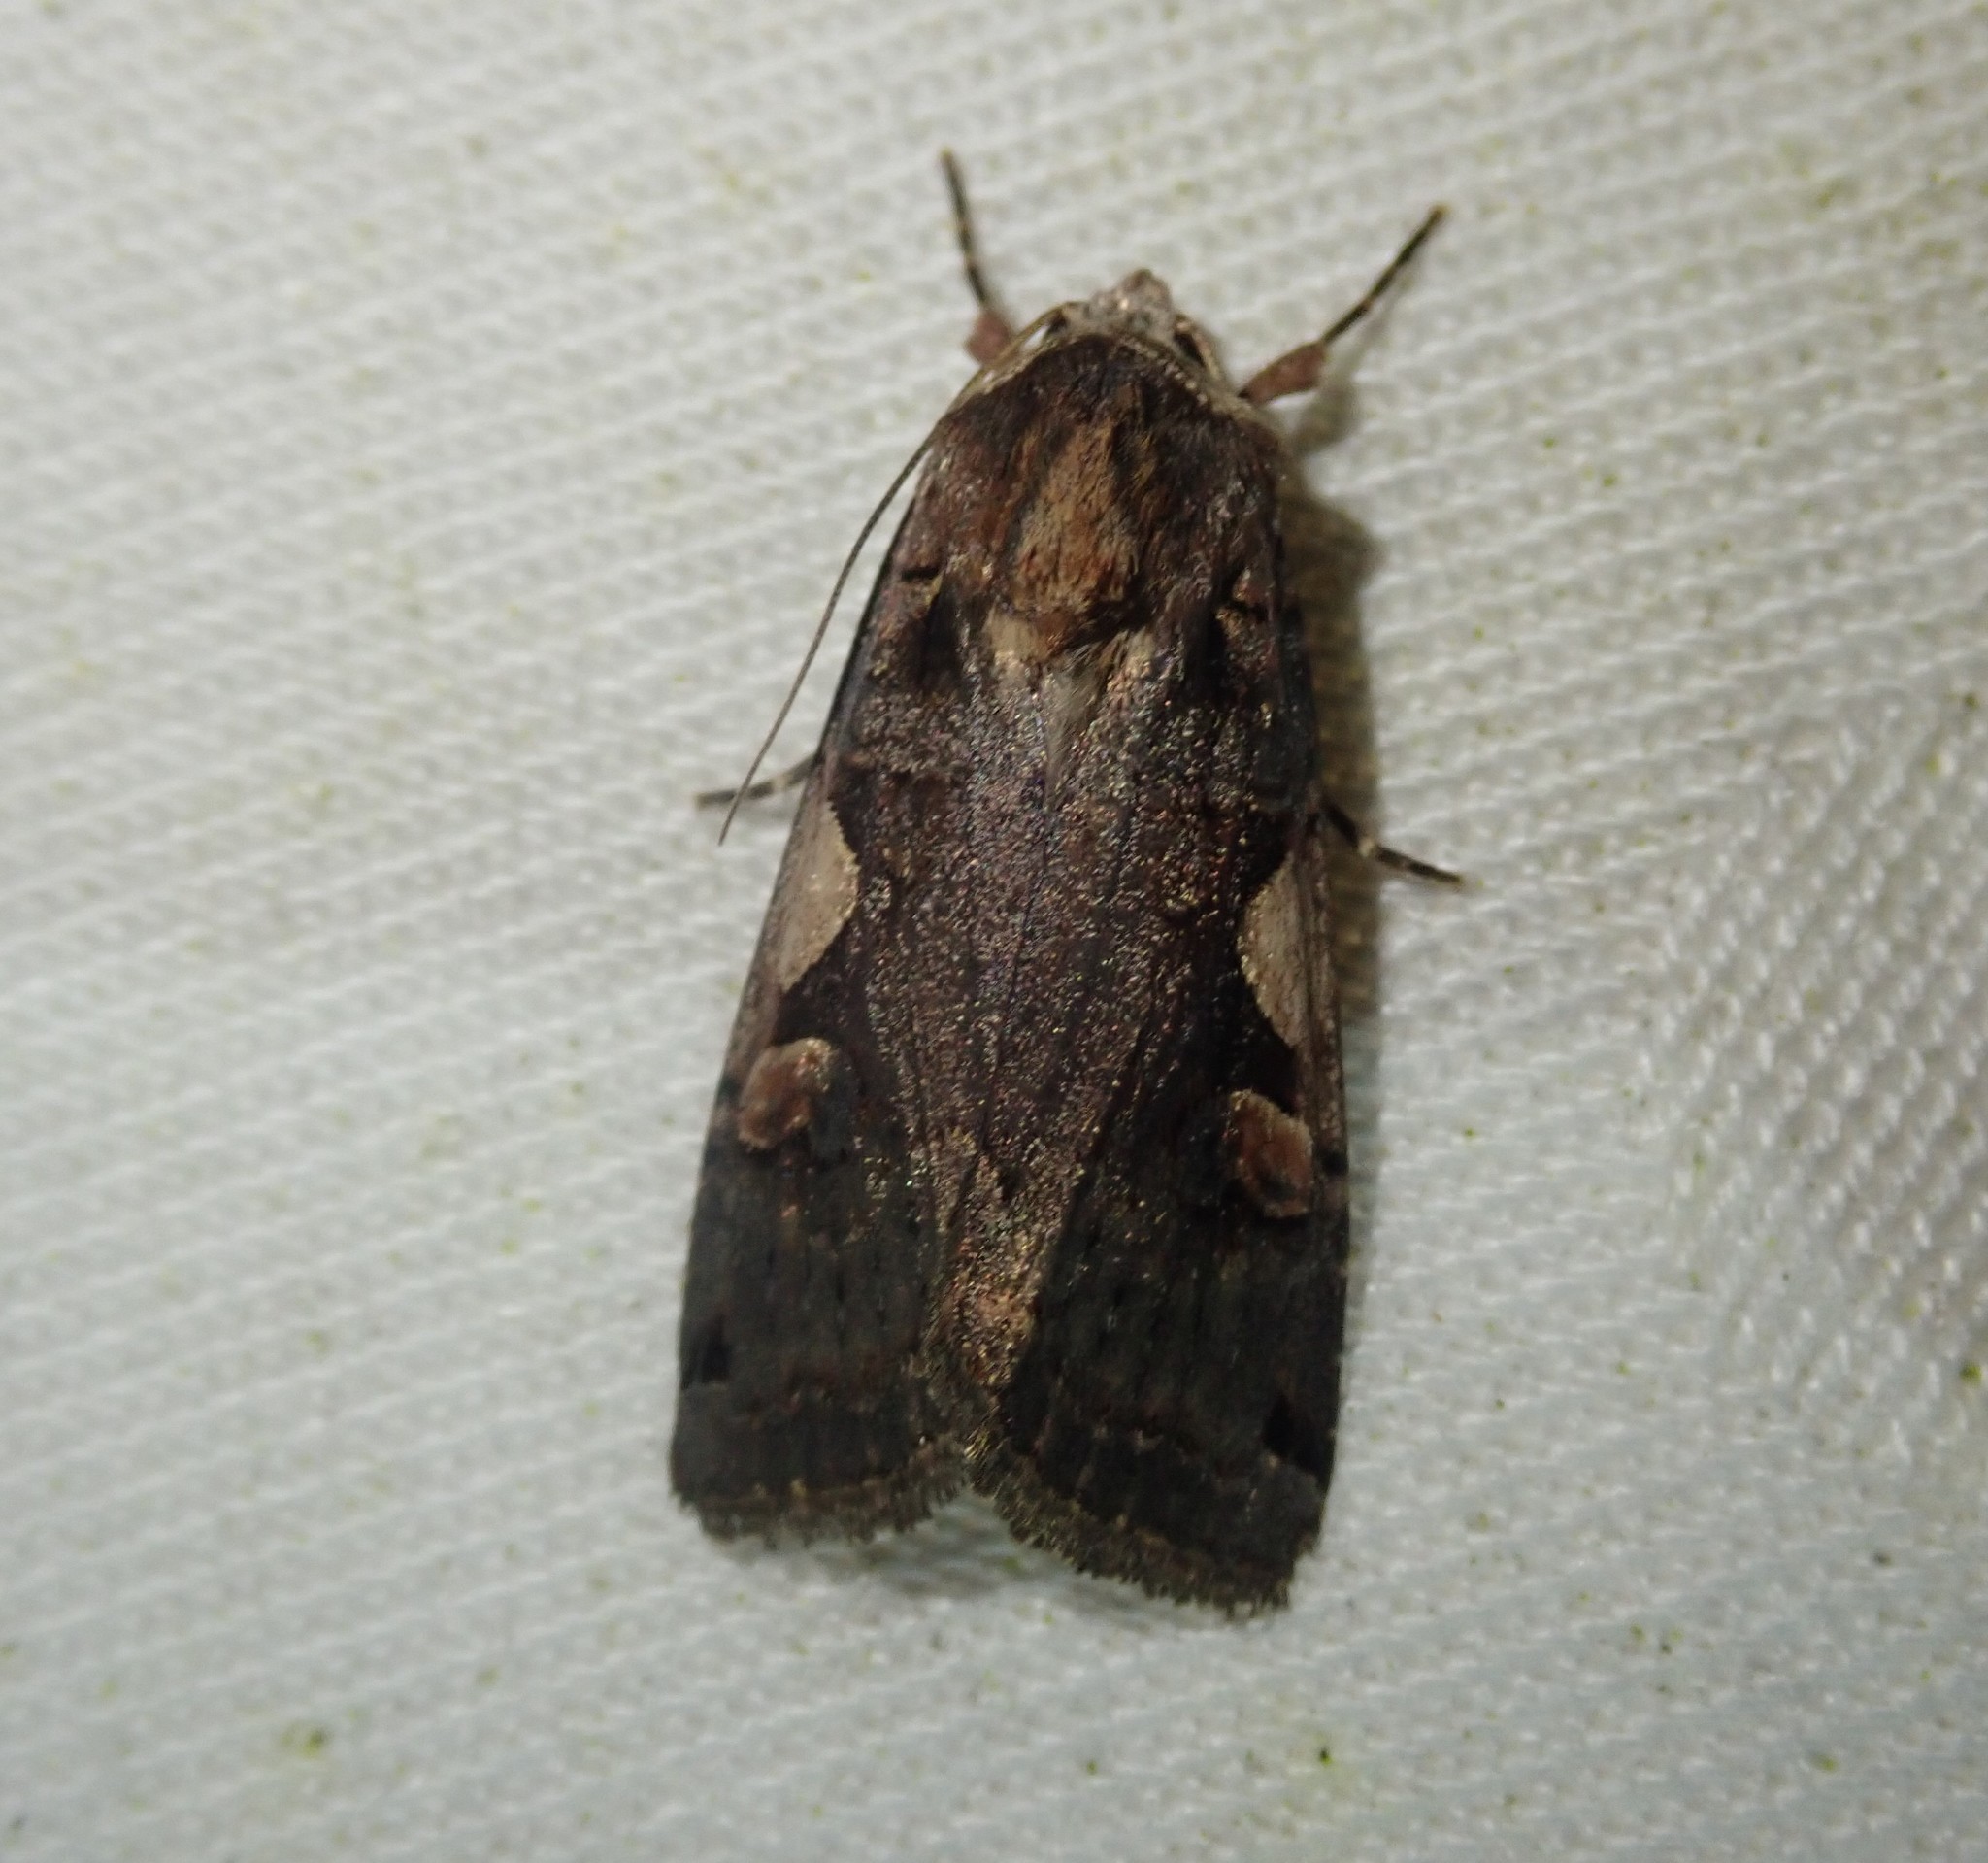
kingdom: Animalia
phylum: Arthropoda
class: Insecta
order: Lepidoptera
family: Noctuidae
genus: Xestia
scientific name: Xestia c-nigrum
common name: Setaceous hebrew character
